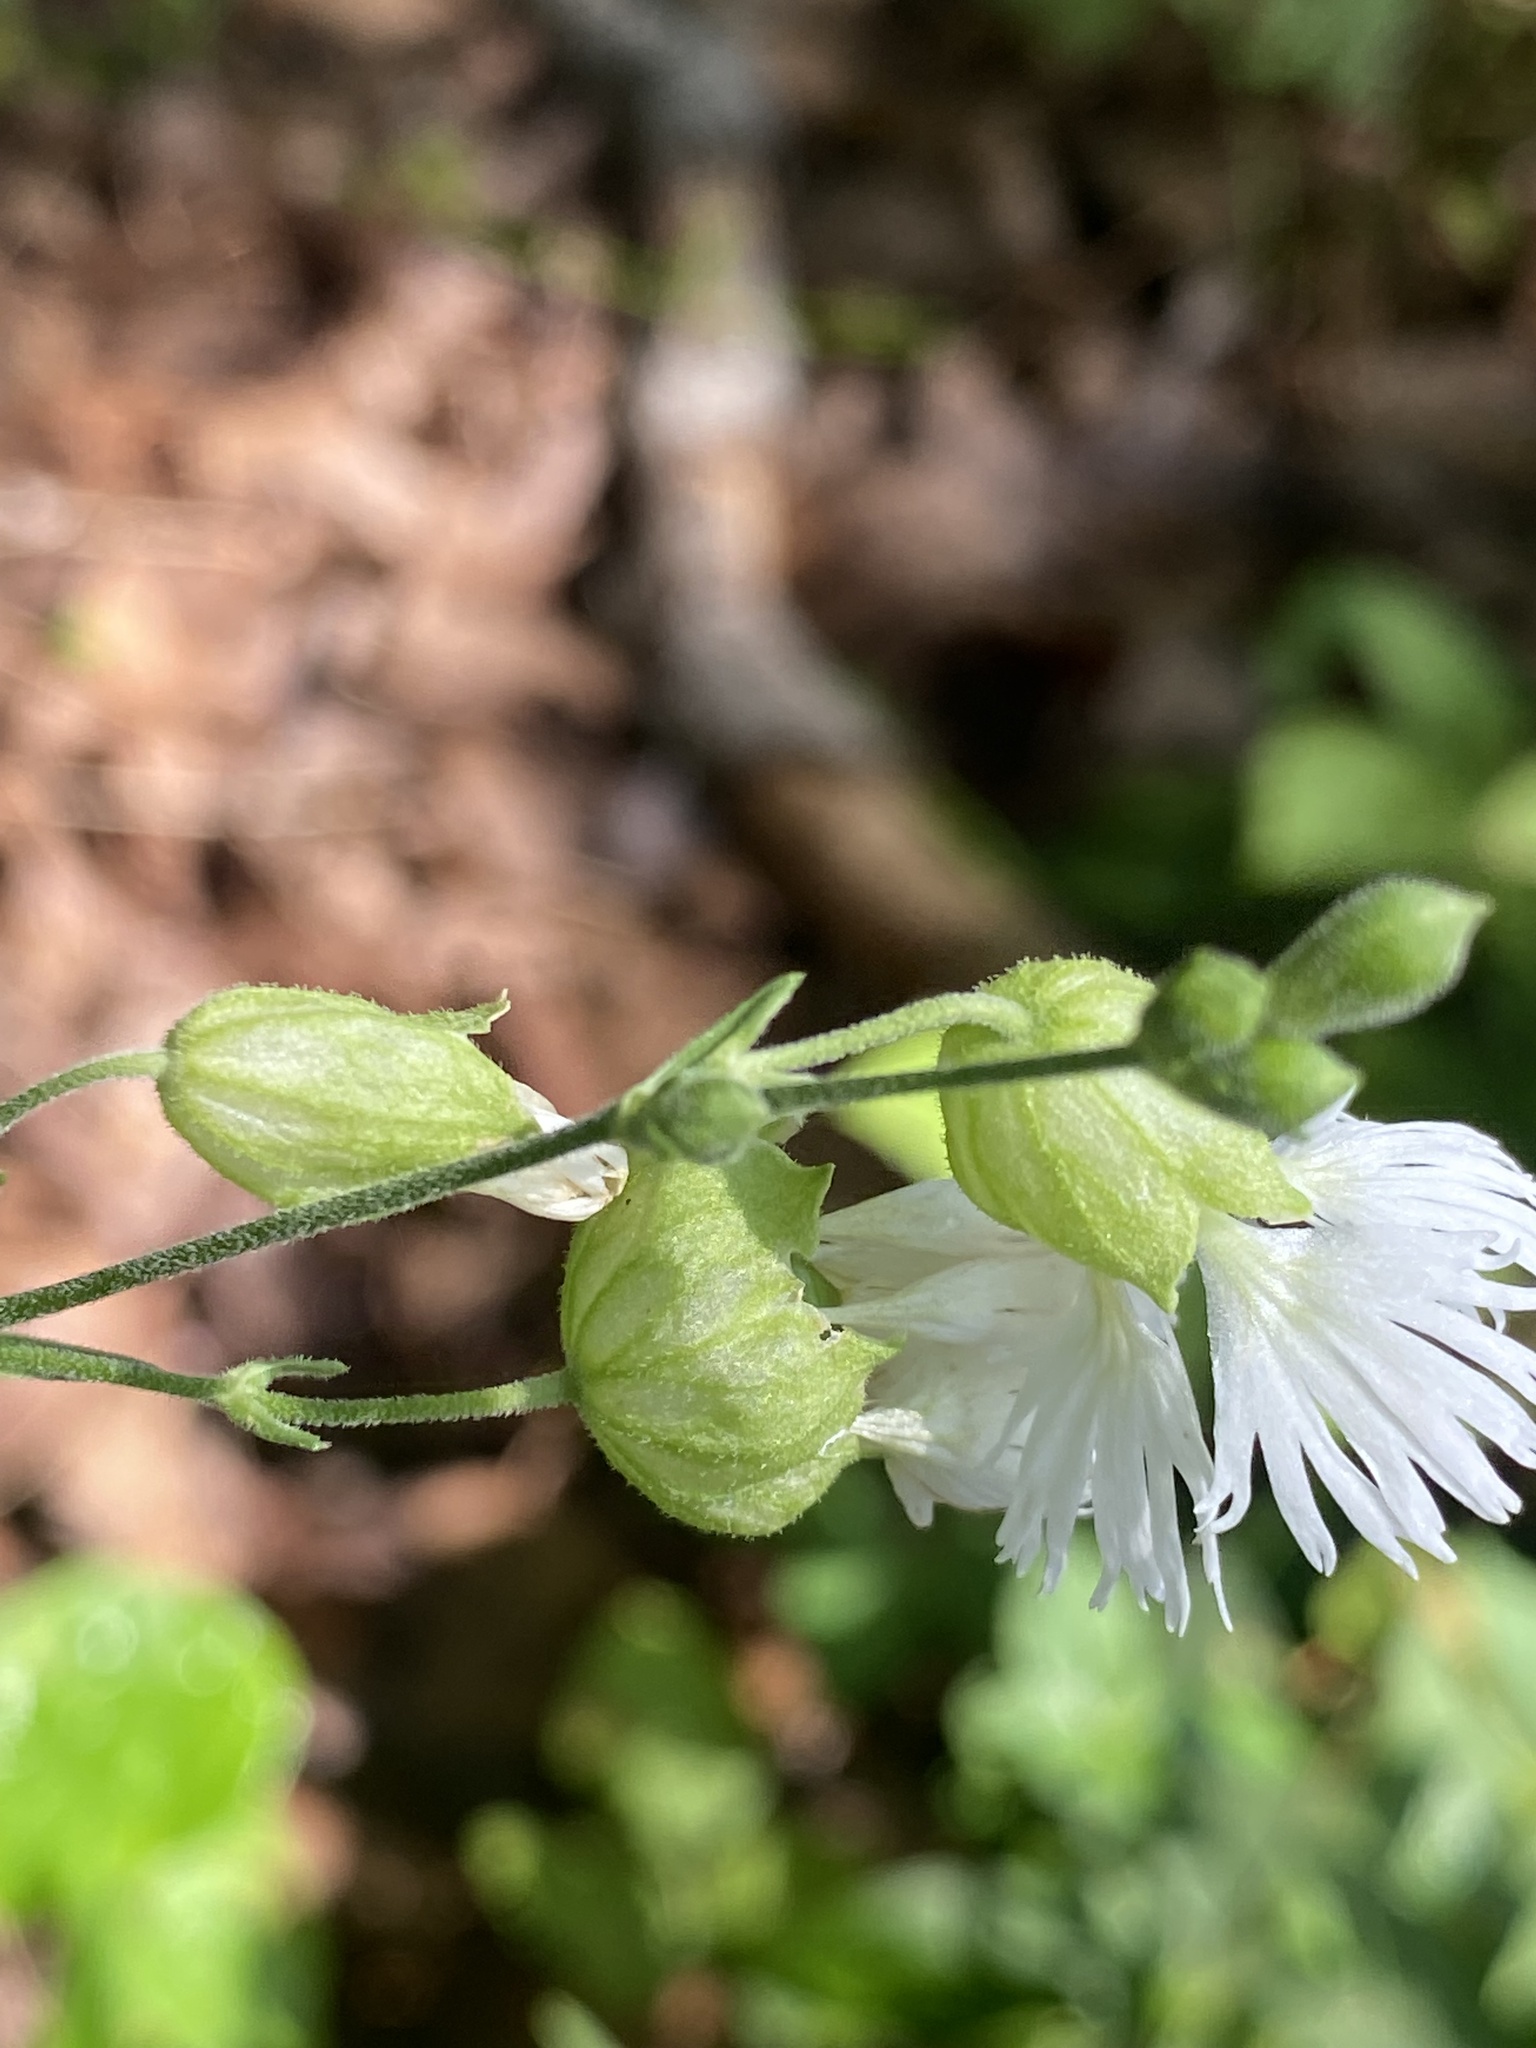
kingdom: Plantae
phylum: Tracheophyta
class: Magnoliopsida
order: Caryophyllales
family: Caryophyllaceae
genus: Silene
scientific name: Silene stellata
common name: Starry campion
